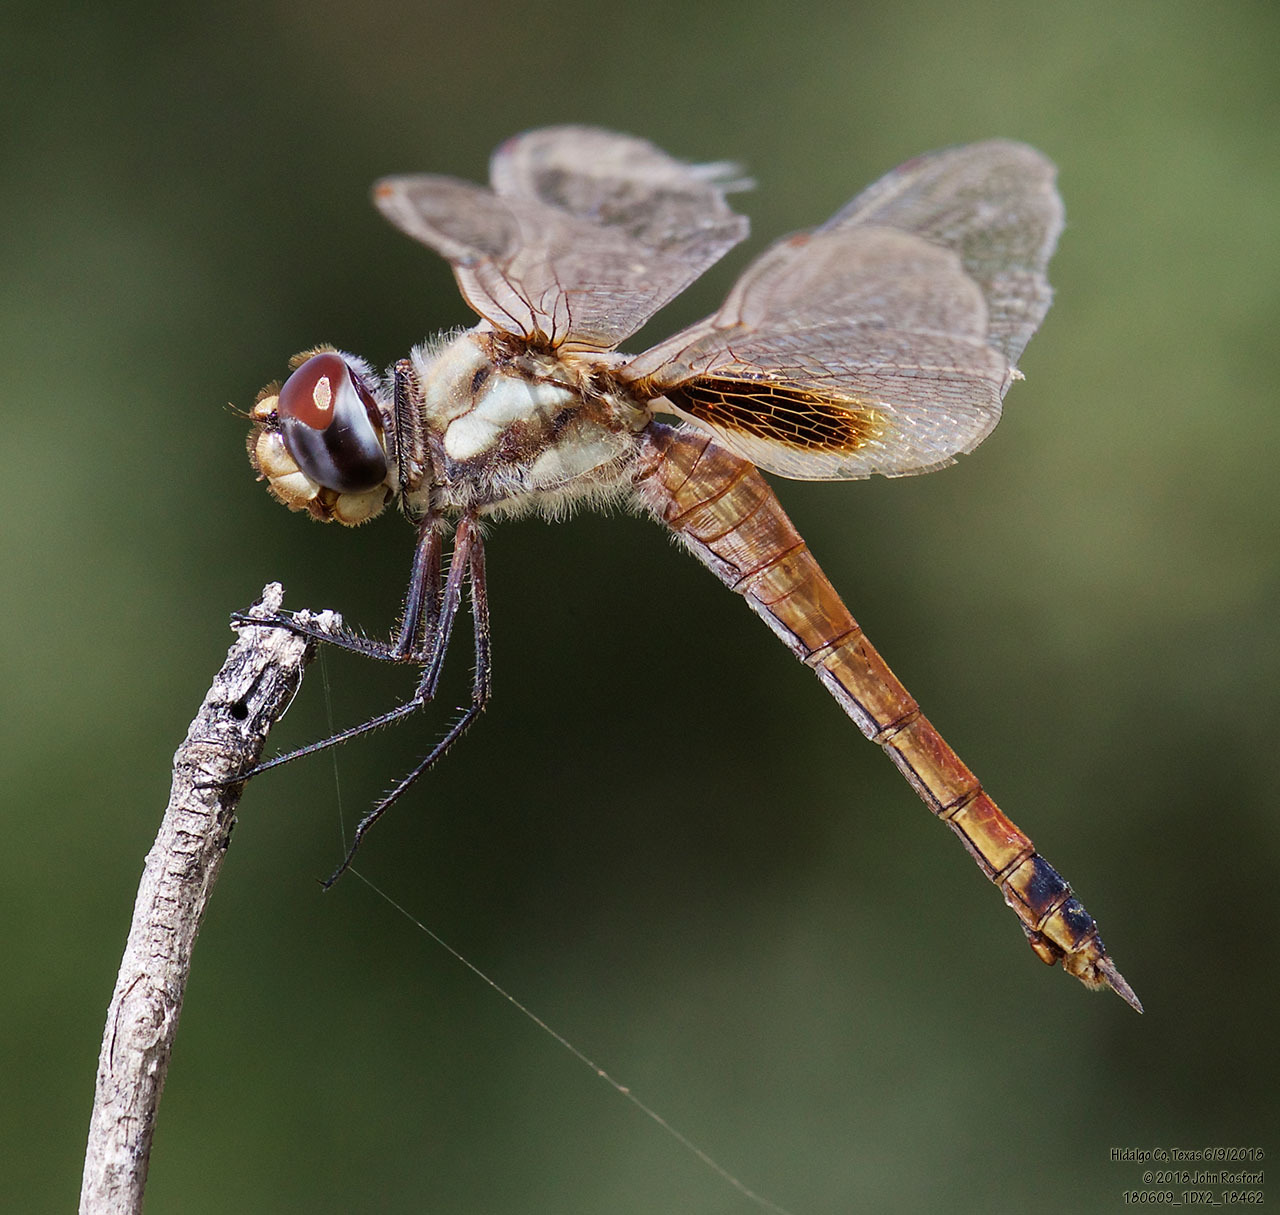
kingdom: Animalia
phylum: Arthropoda
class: Insecta
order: Odonata
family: Libellulidae
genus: Tramea
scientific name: Tramea darwini
